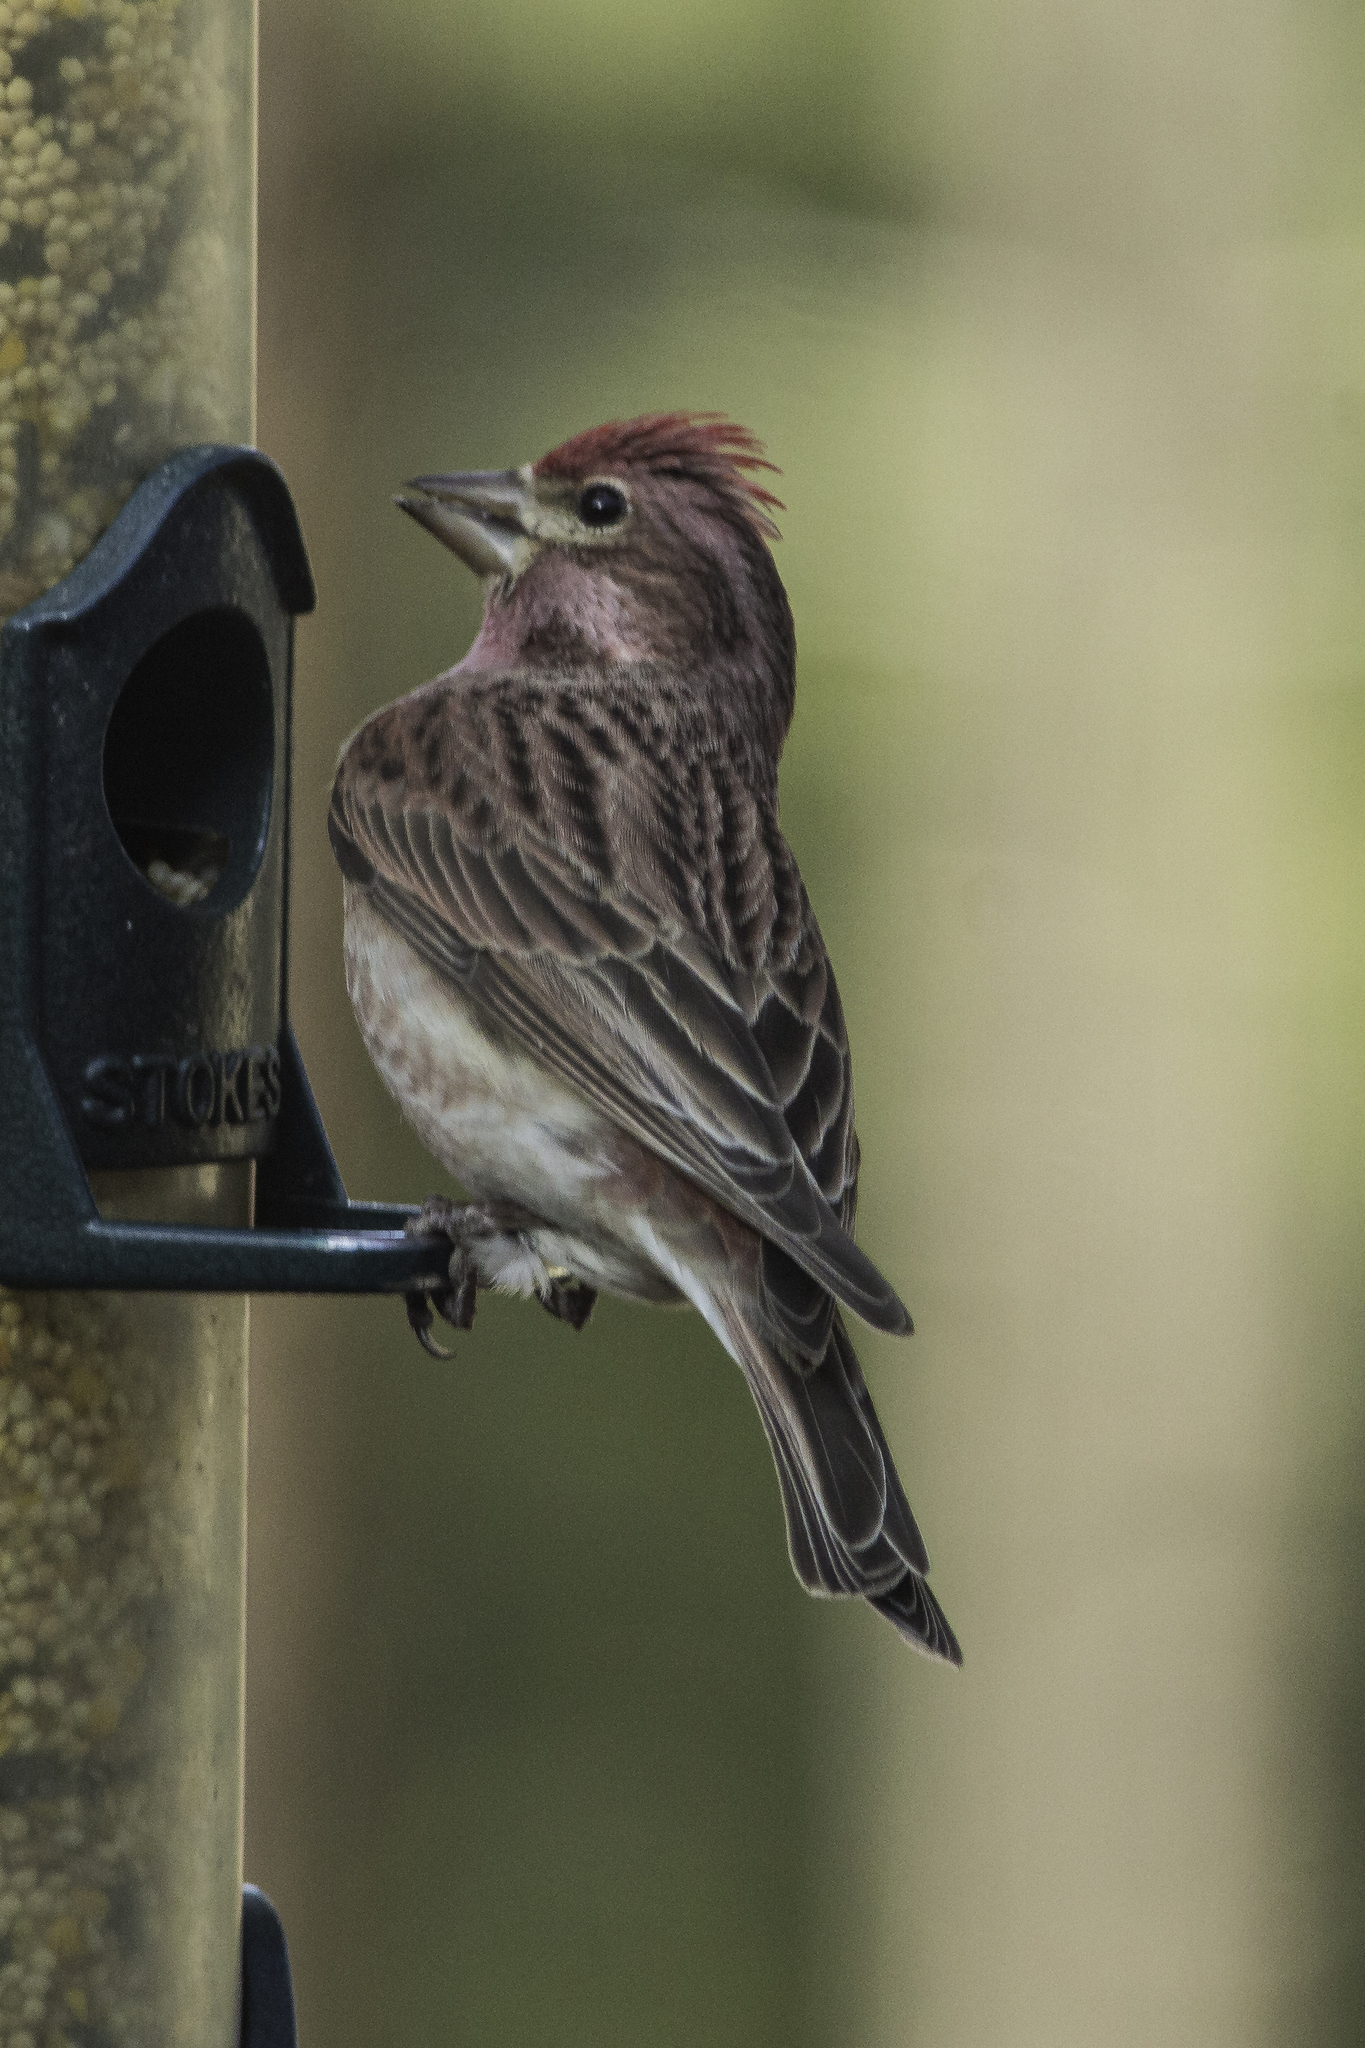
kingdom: Animalia
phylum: Chordata
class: Aves
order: Passeriformes
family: Fringillidae
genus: Haemorhous
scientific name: Haemorhous cassinii
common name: Cassin's finch
